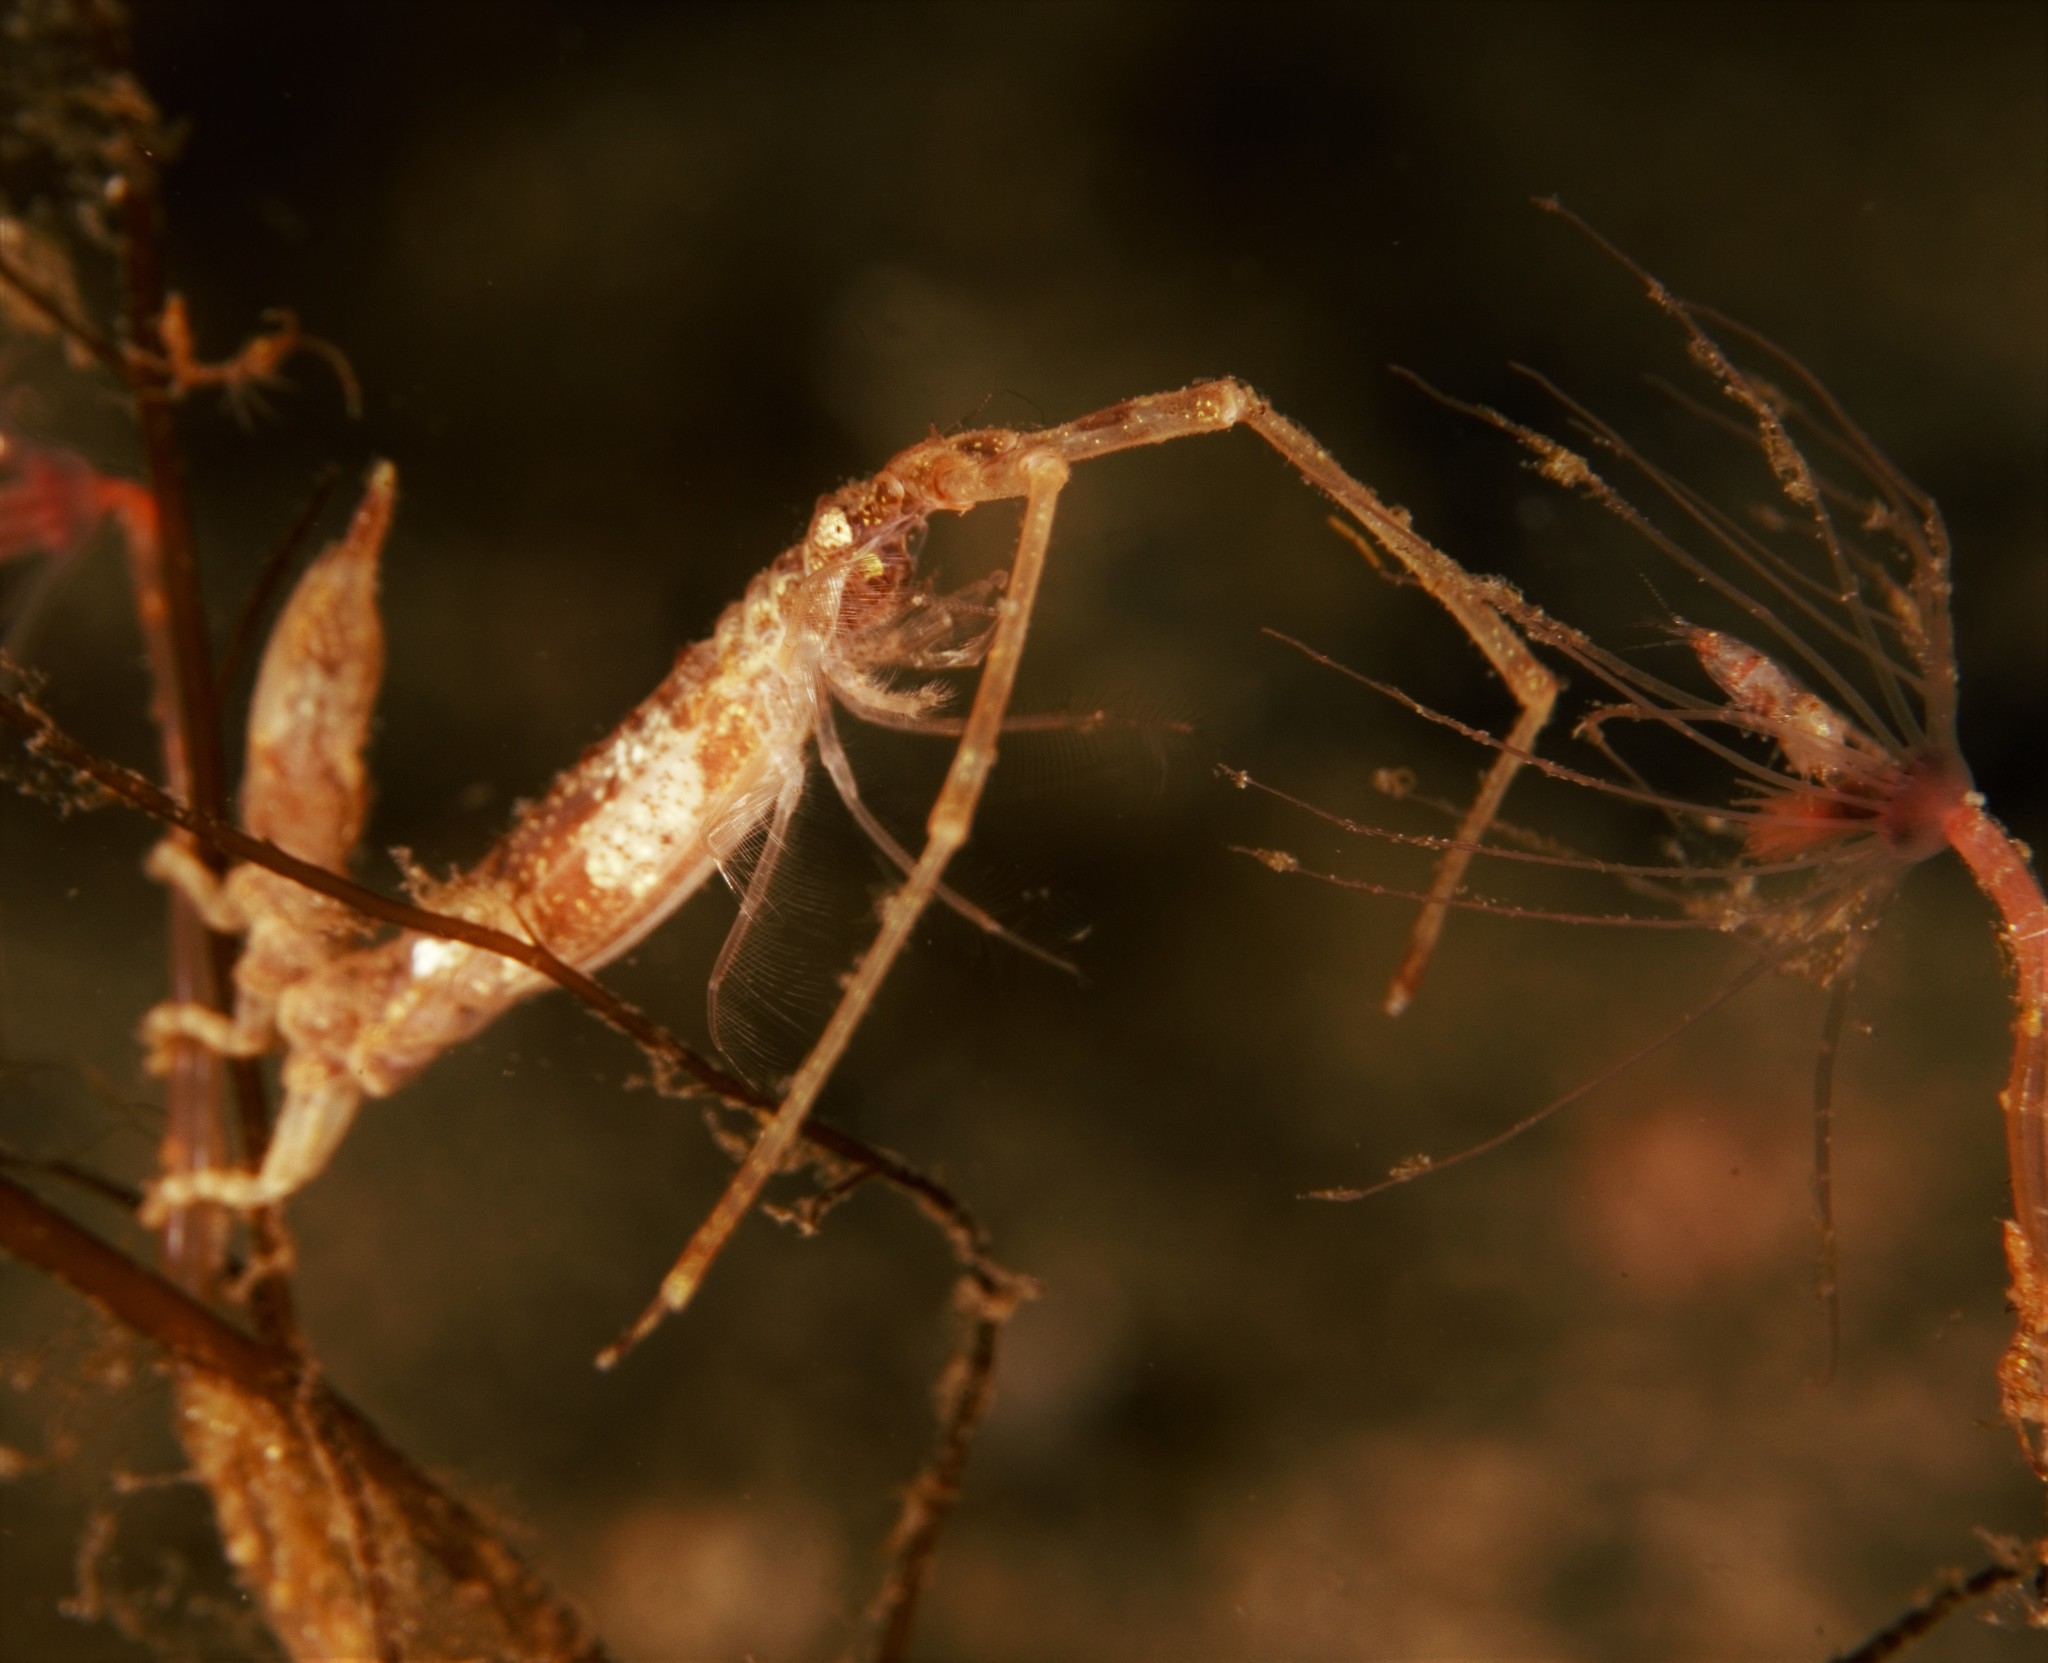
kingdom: Animalia
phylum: Arthropoda
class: Malacostraca
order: Isopoda
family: Arcturidae
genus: Astacilla
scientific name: Astacilla longicornis
